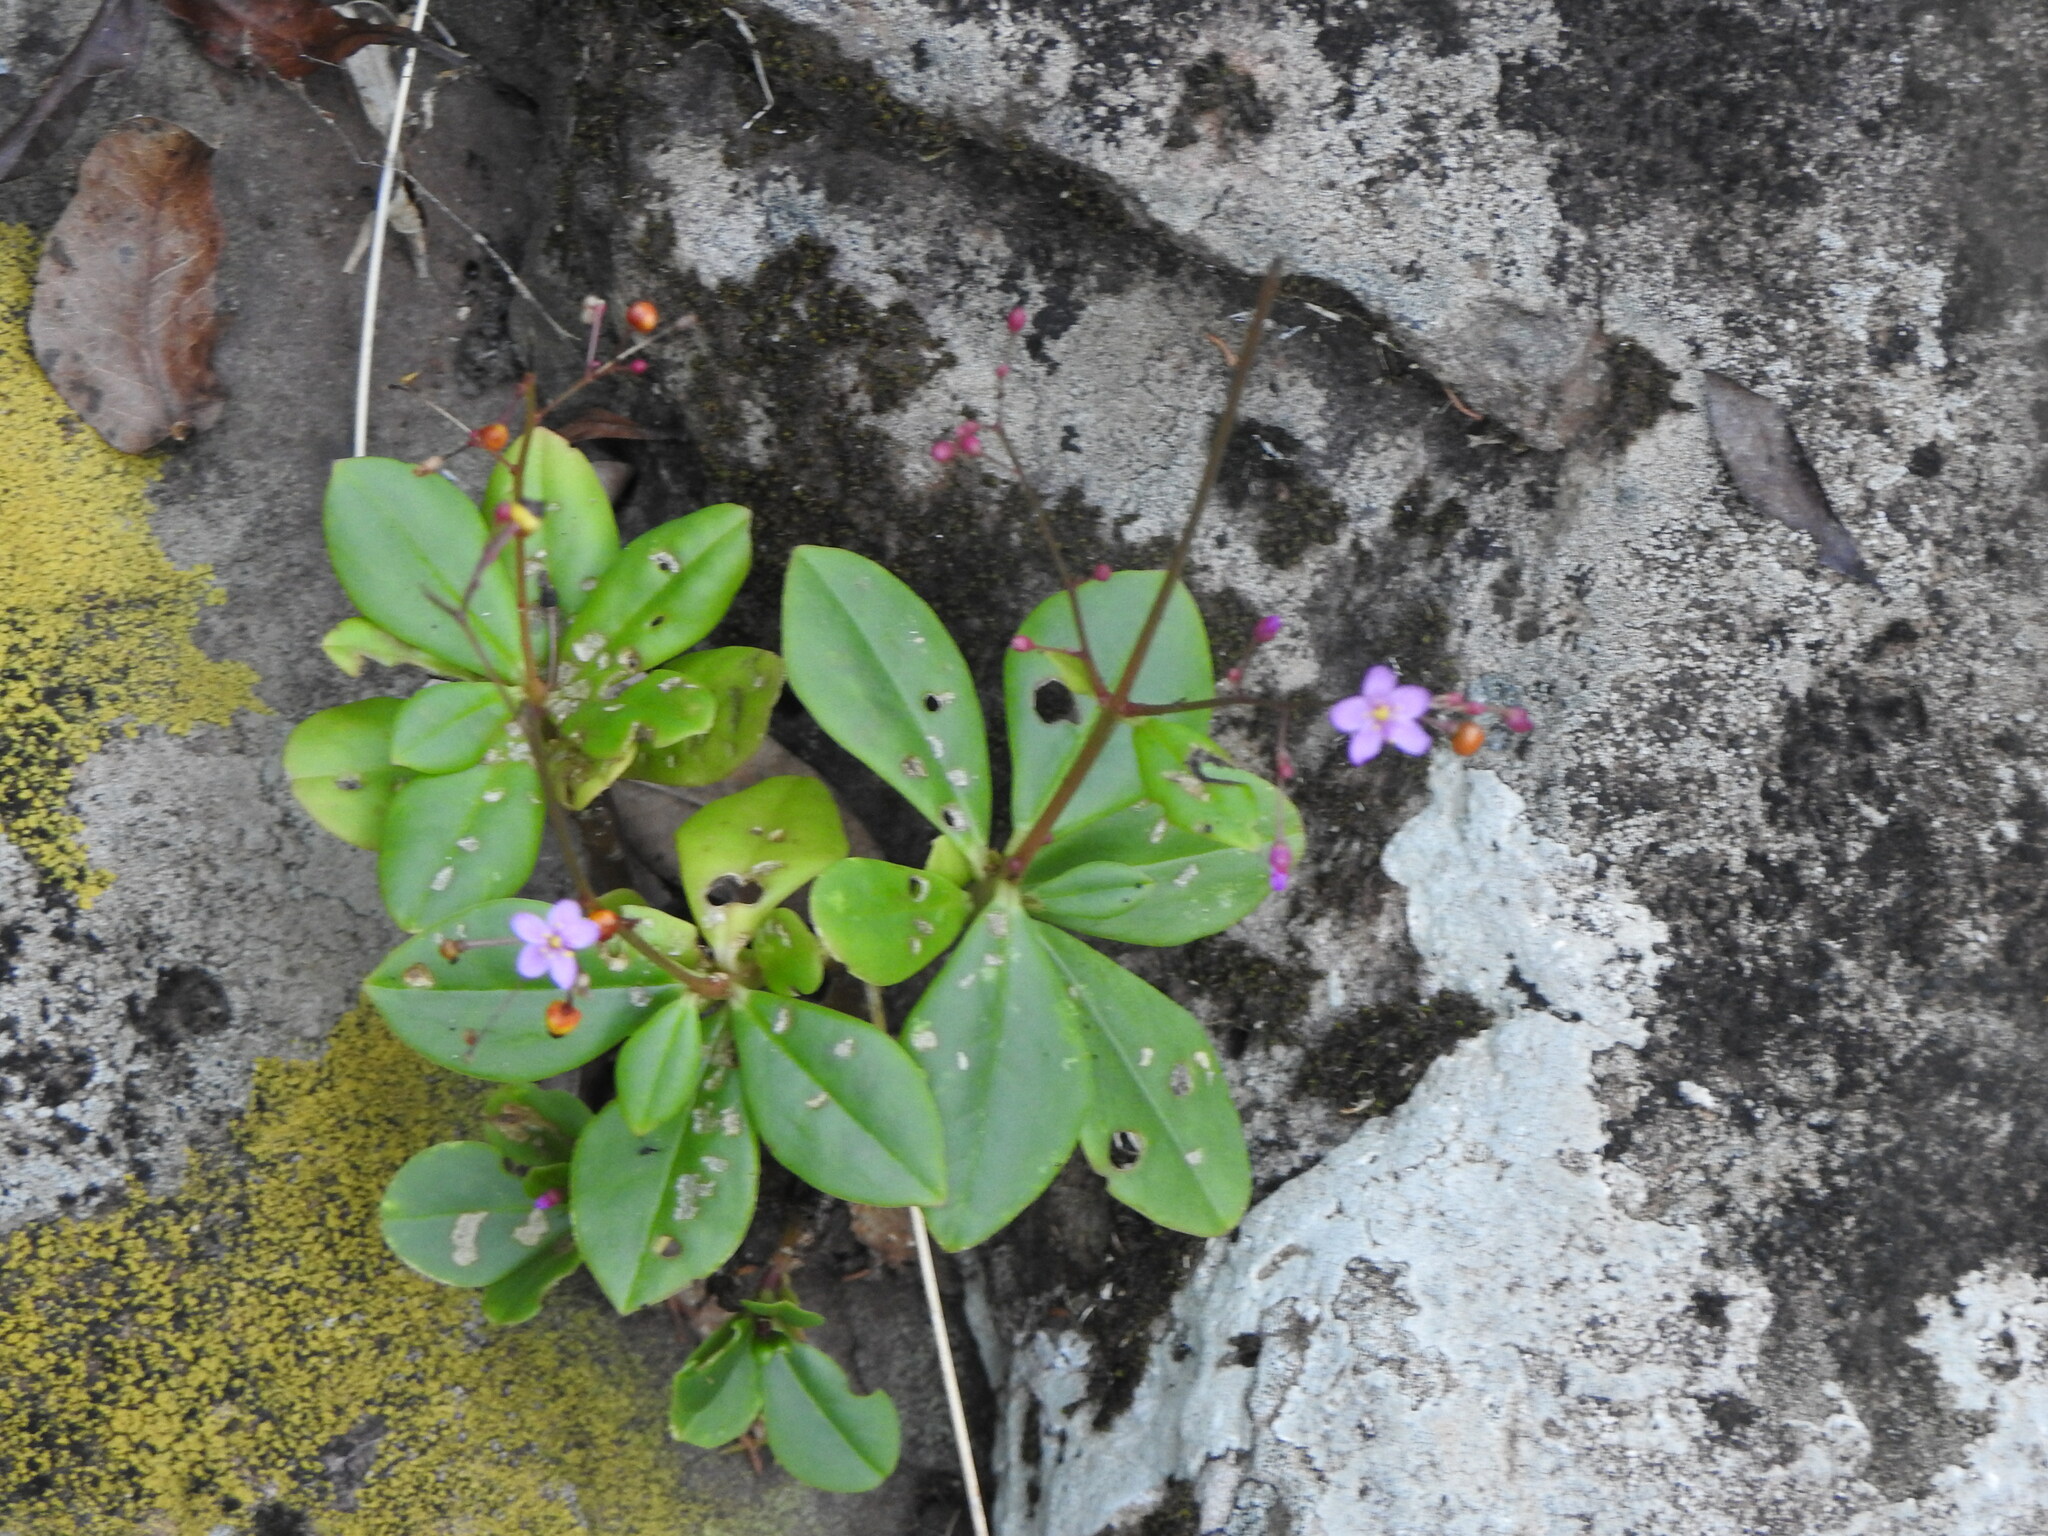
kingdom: Plantae
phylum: Tracheophyta
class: Magnoliopsida
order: Caryophyllales
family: Talinaceae
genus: Talinum
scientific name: Talinum paniculatum
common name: Jewels of opar
